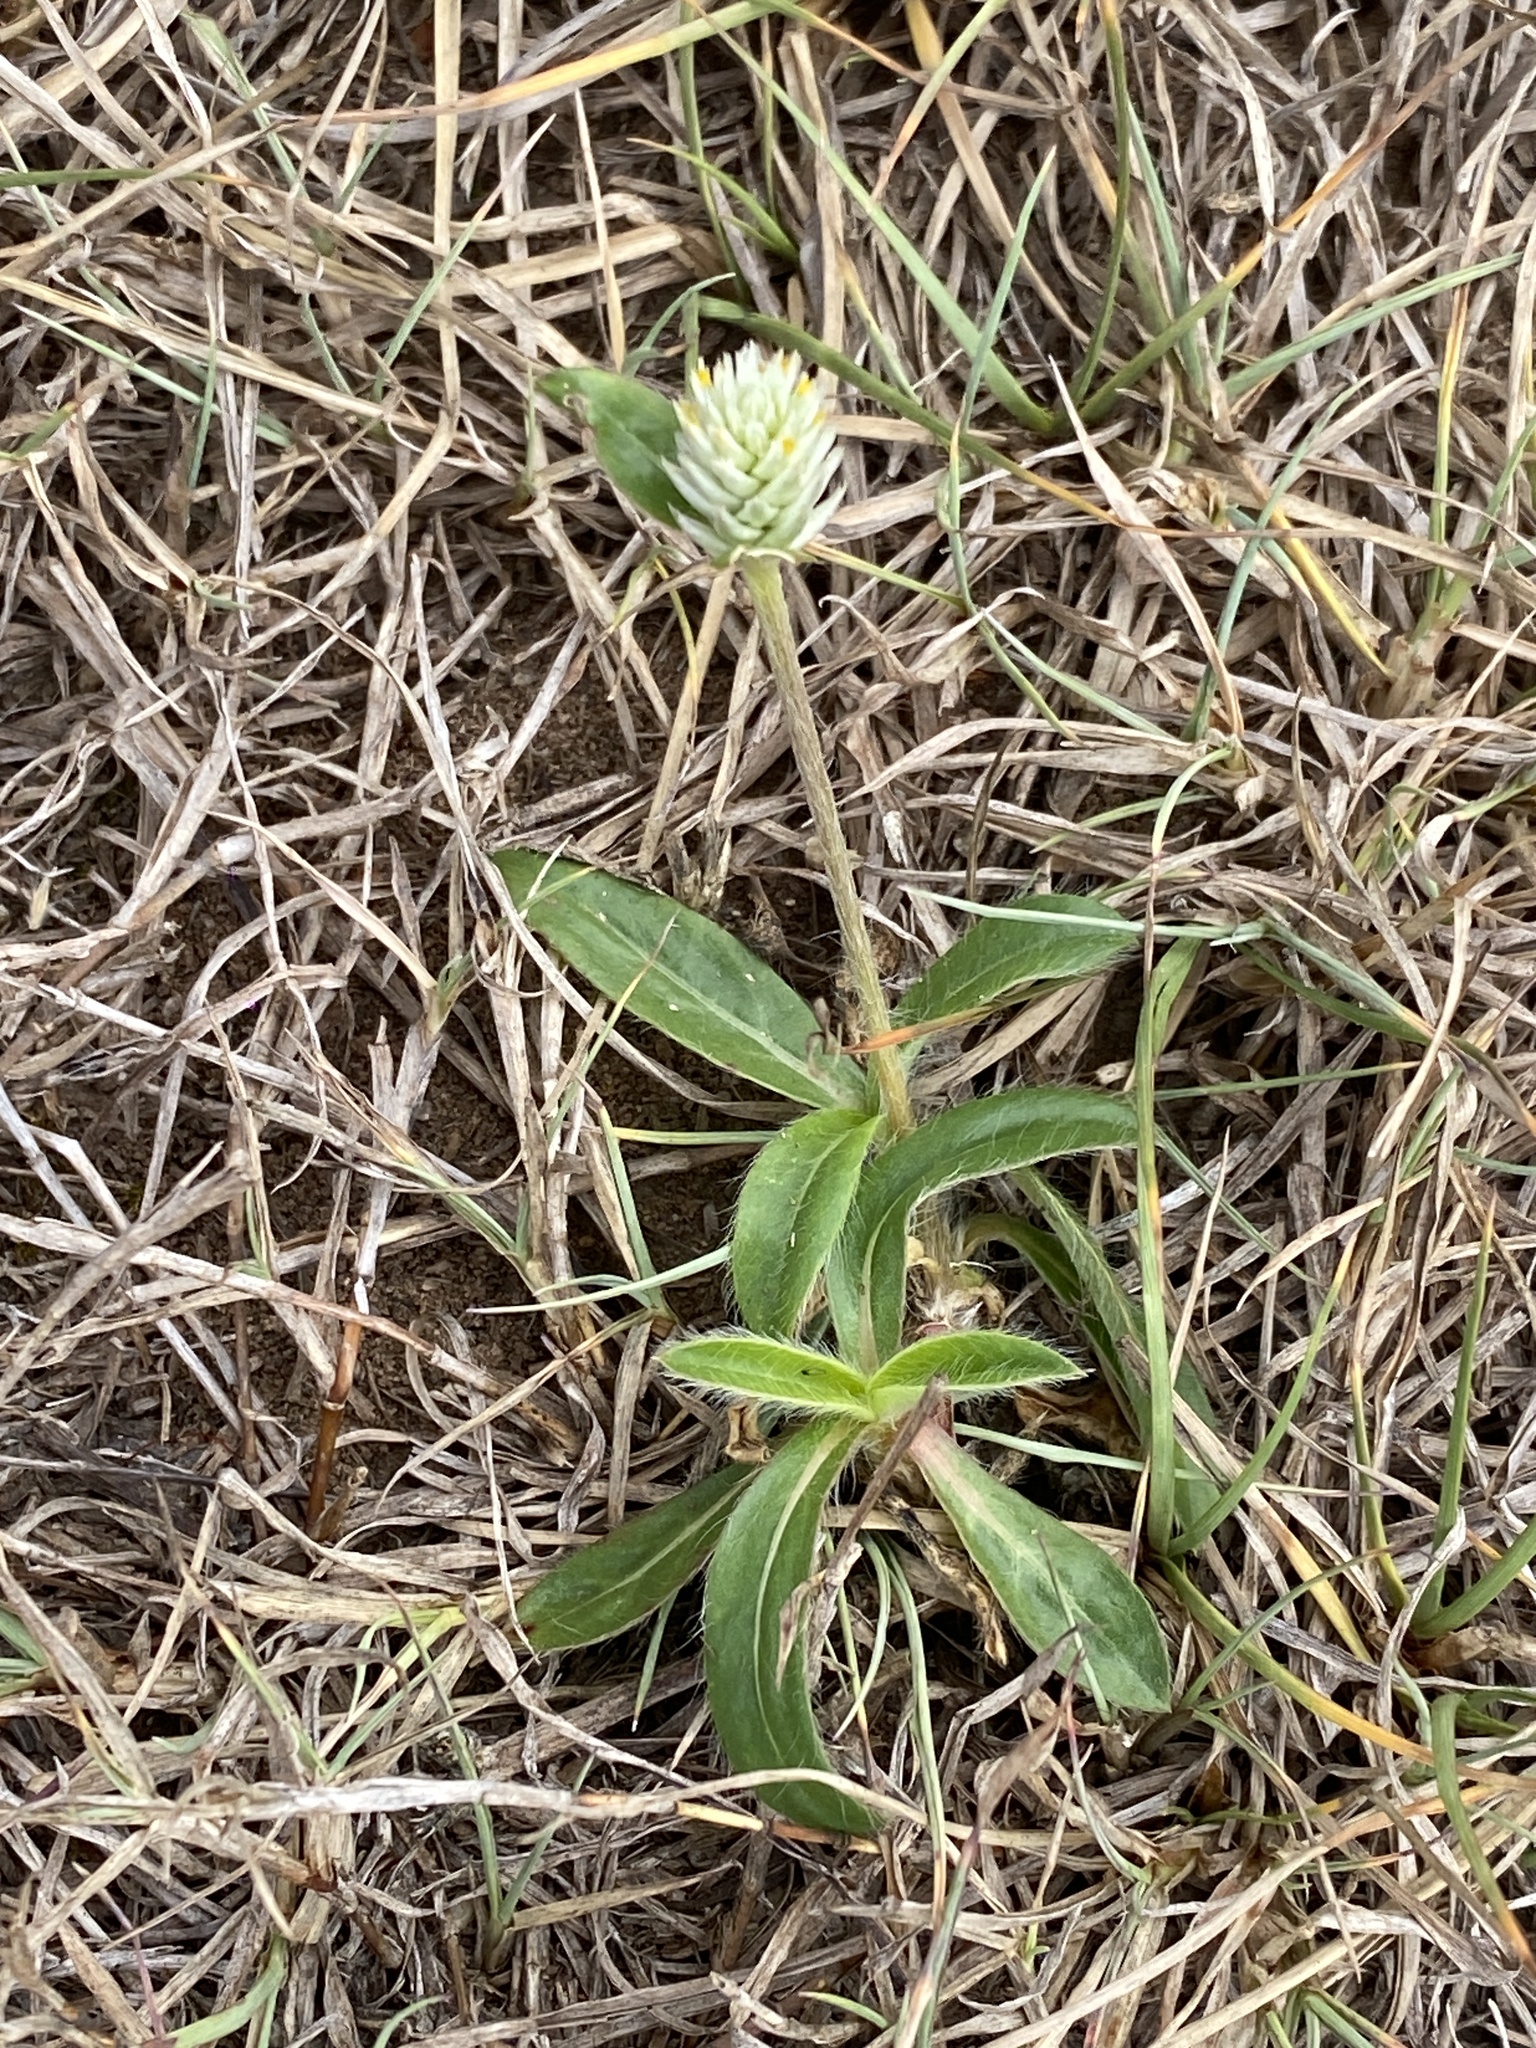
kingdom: Plantae
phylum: Tracheophyta
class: Magnoliopsida
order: Caryophyllales
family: Amaranthaceae
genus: Gomphrena
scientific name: Gomphrena celosioides
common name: Gomphrena-weed
